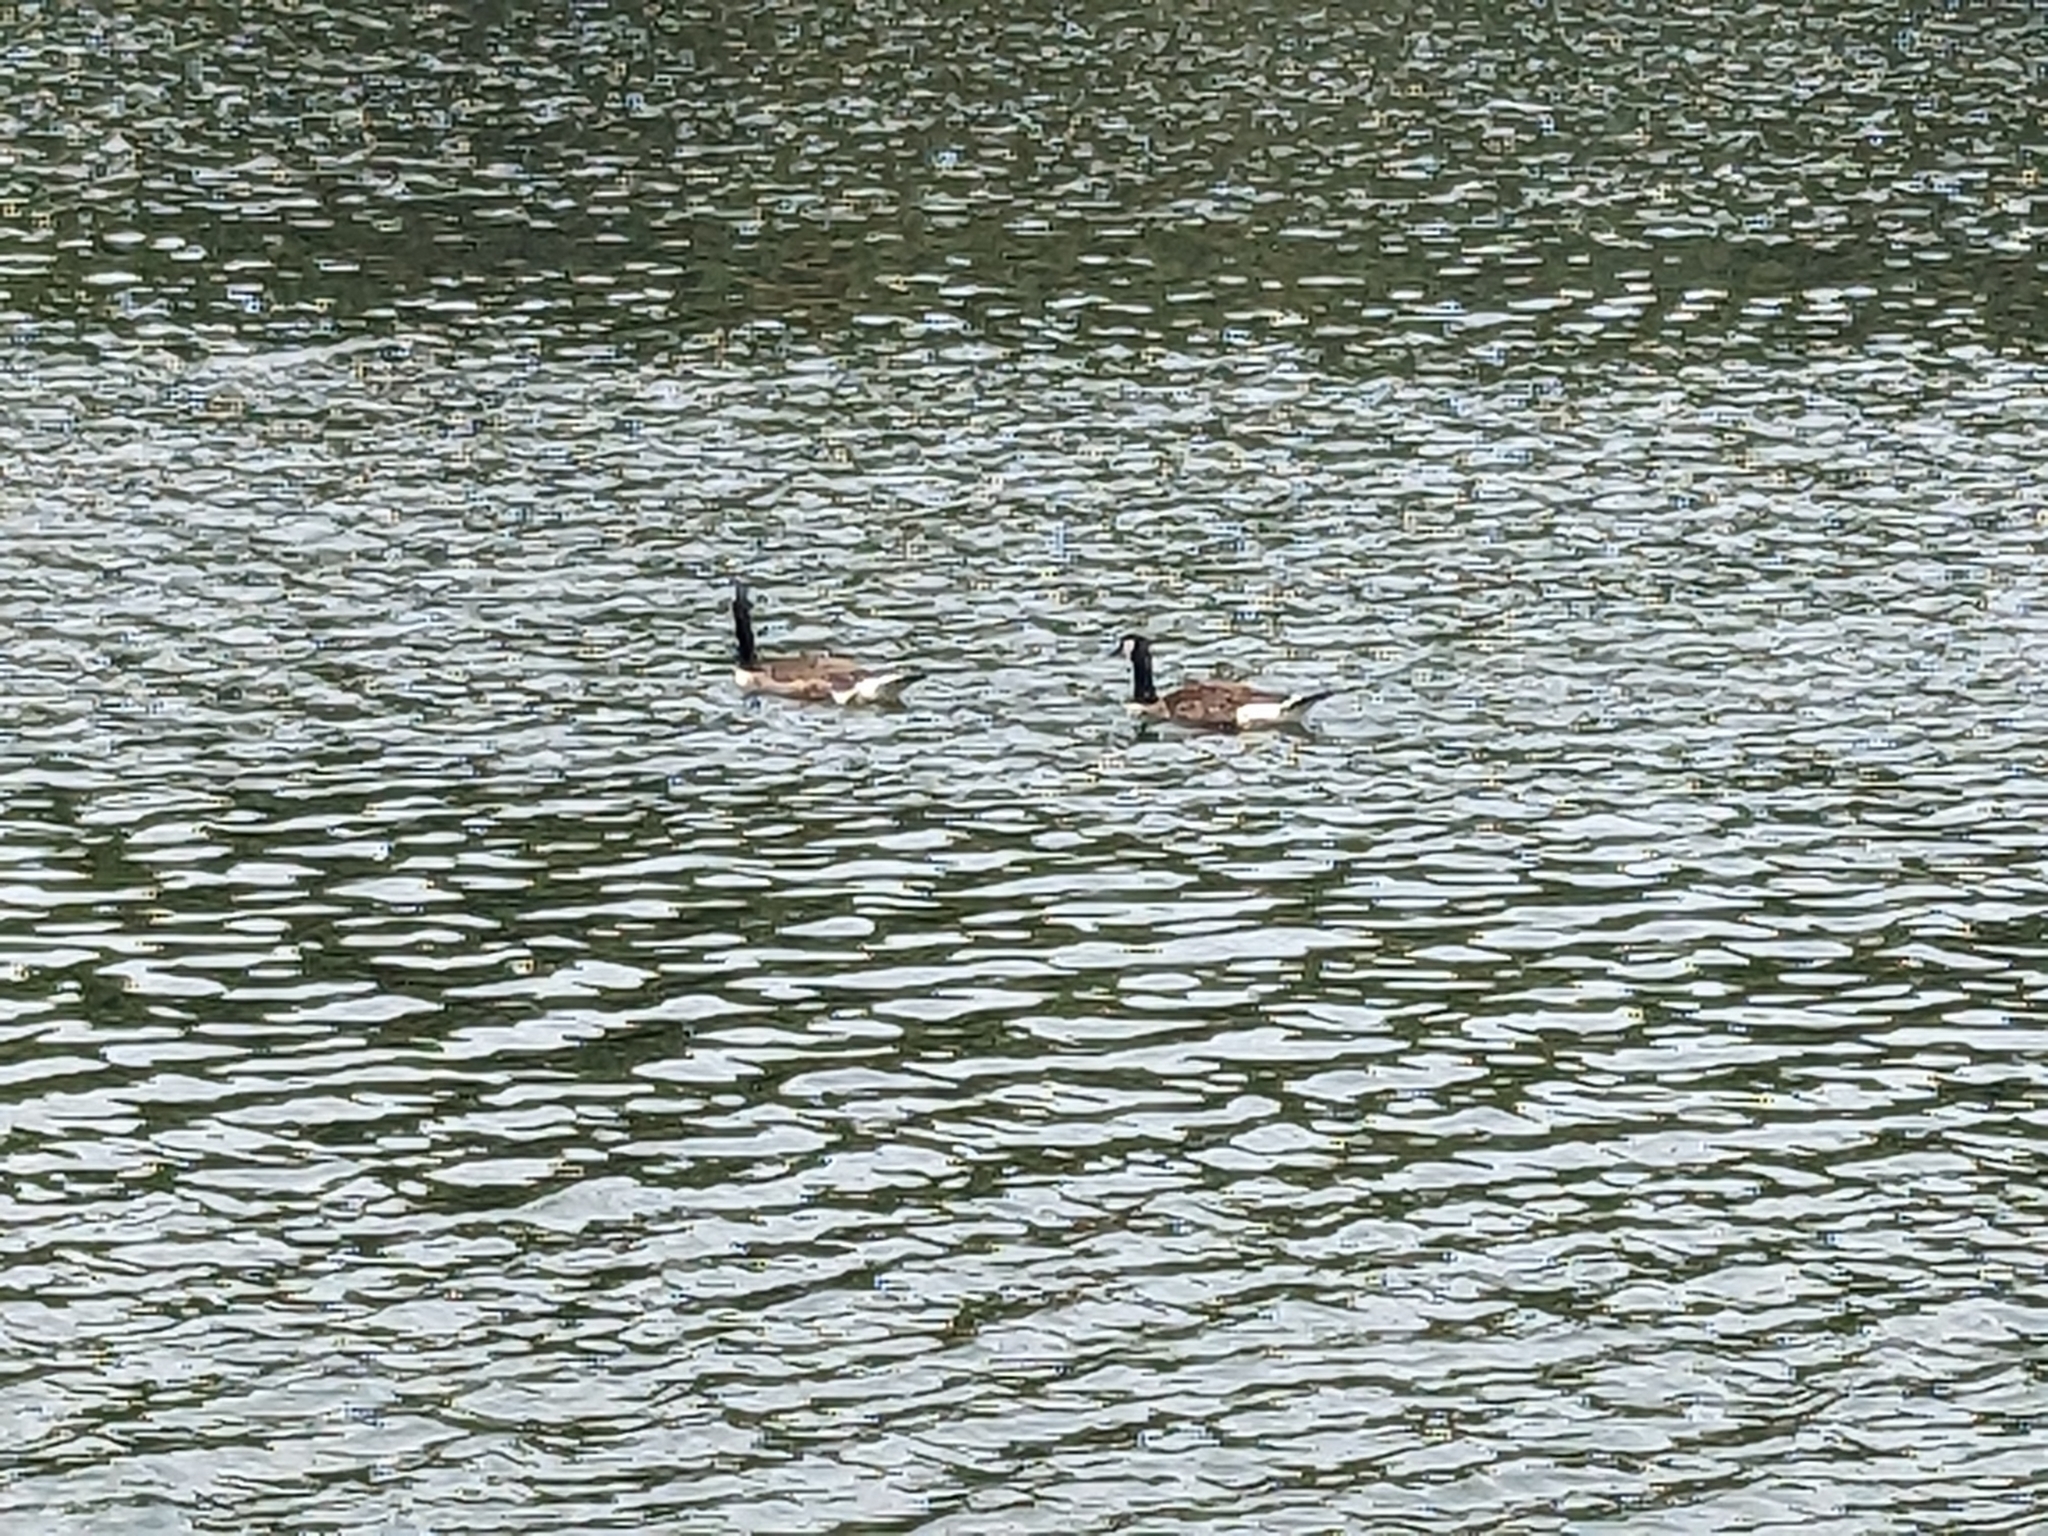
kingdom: Animalia
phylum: Chordata
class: Aves
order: Anseriformes
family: Anatidae
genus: Branta
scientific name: Branta canadensis
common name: Canada goose
